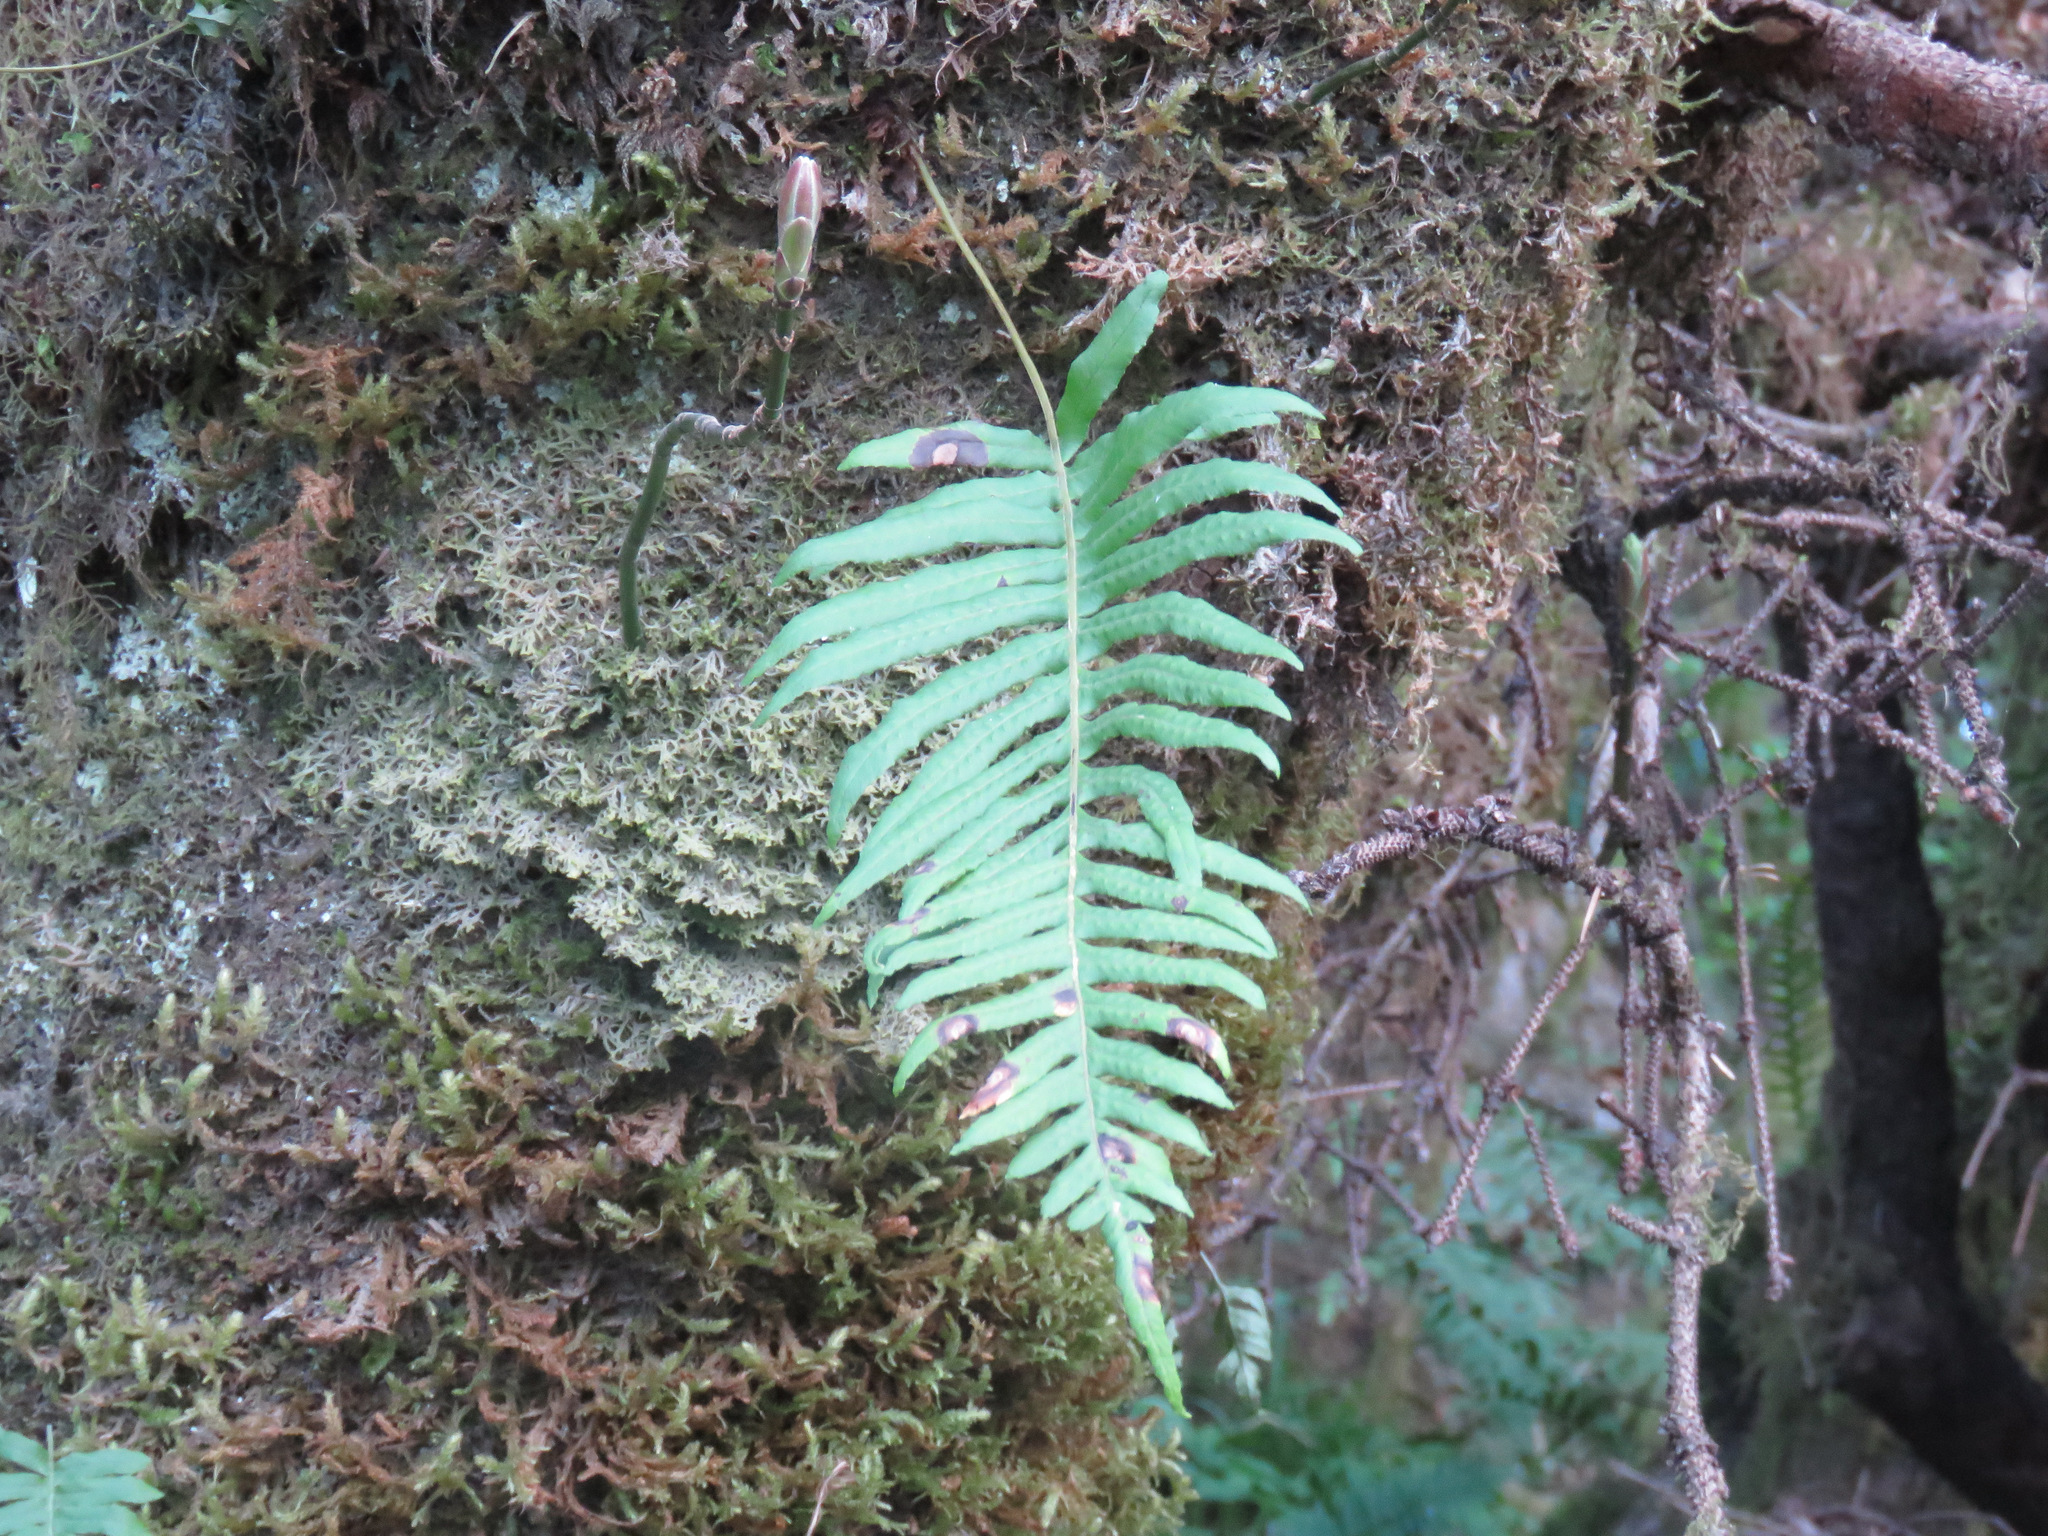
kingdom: Plantae
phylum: Tracheophyta
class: Polypodiopsida
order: Polypodiales
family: Polypodiaceae
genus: Polypodium
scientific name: Polypodium glycyrrhiza
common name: Licorice fern
